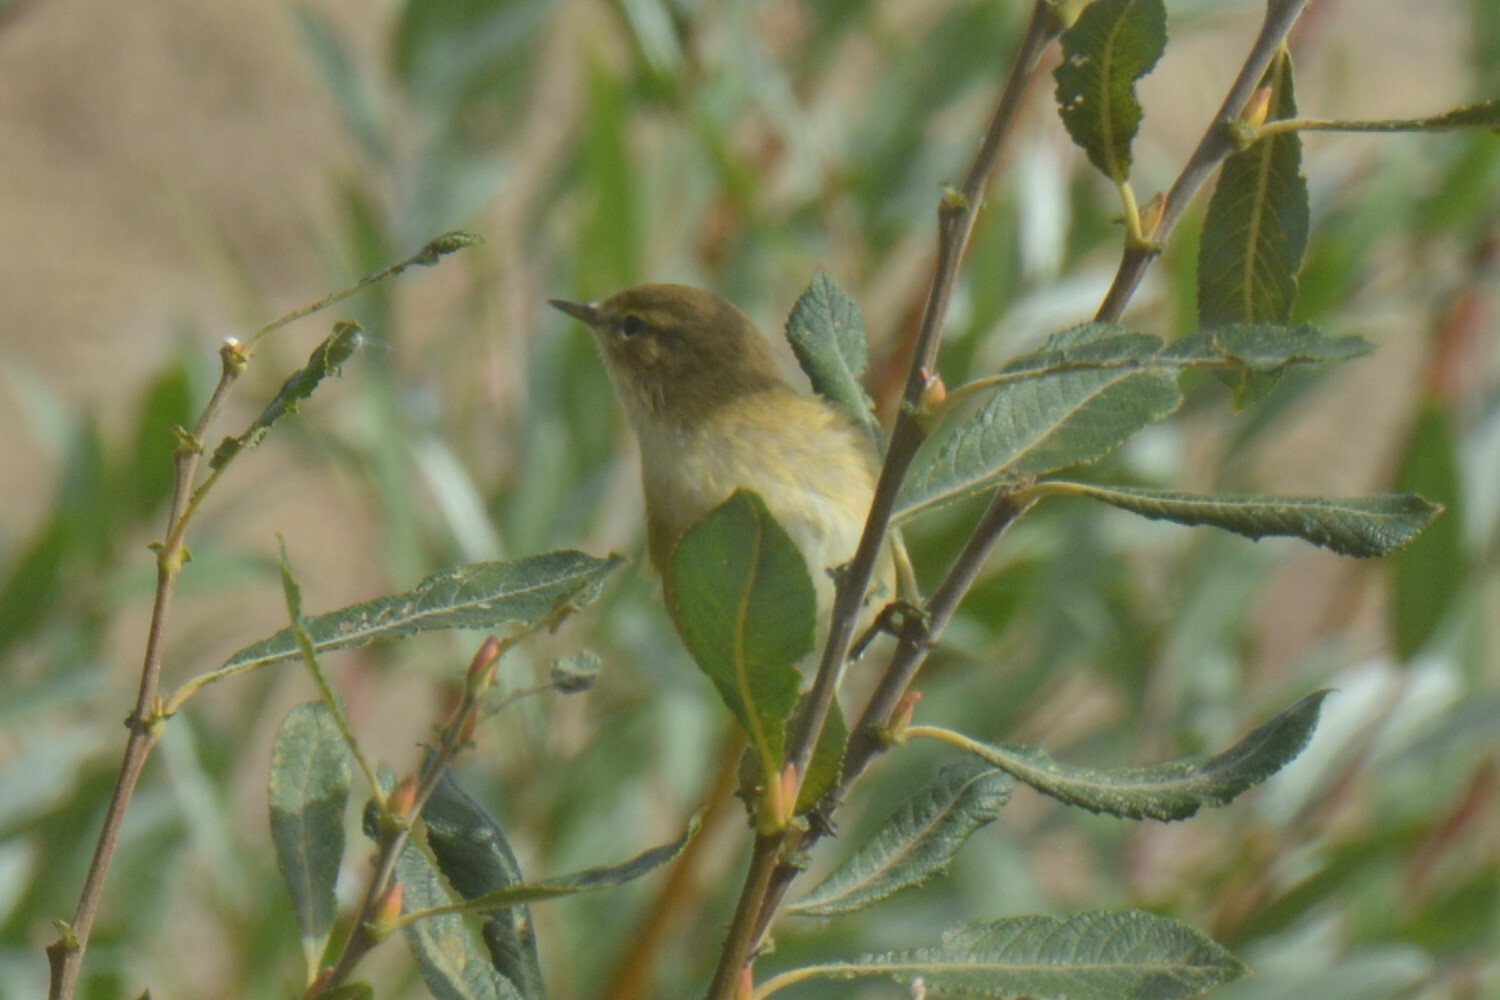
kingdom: Animalia
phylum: Chordata
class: Aves
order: Passeriformes
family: Phylloscopidae
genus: Phylloscopus
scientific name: Phylloscopus collybita
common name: Common chiffchaff
